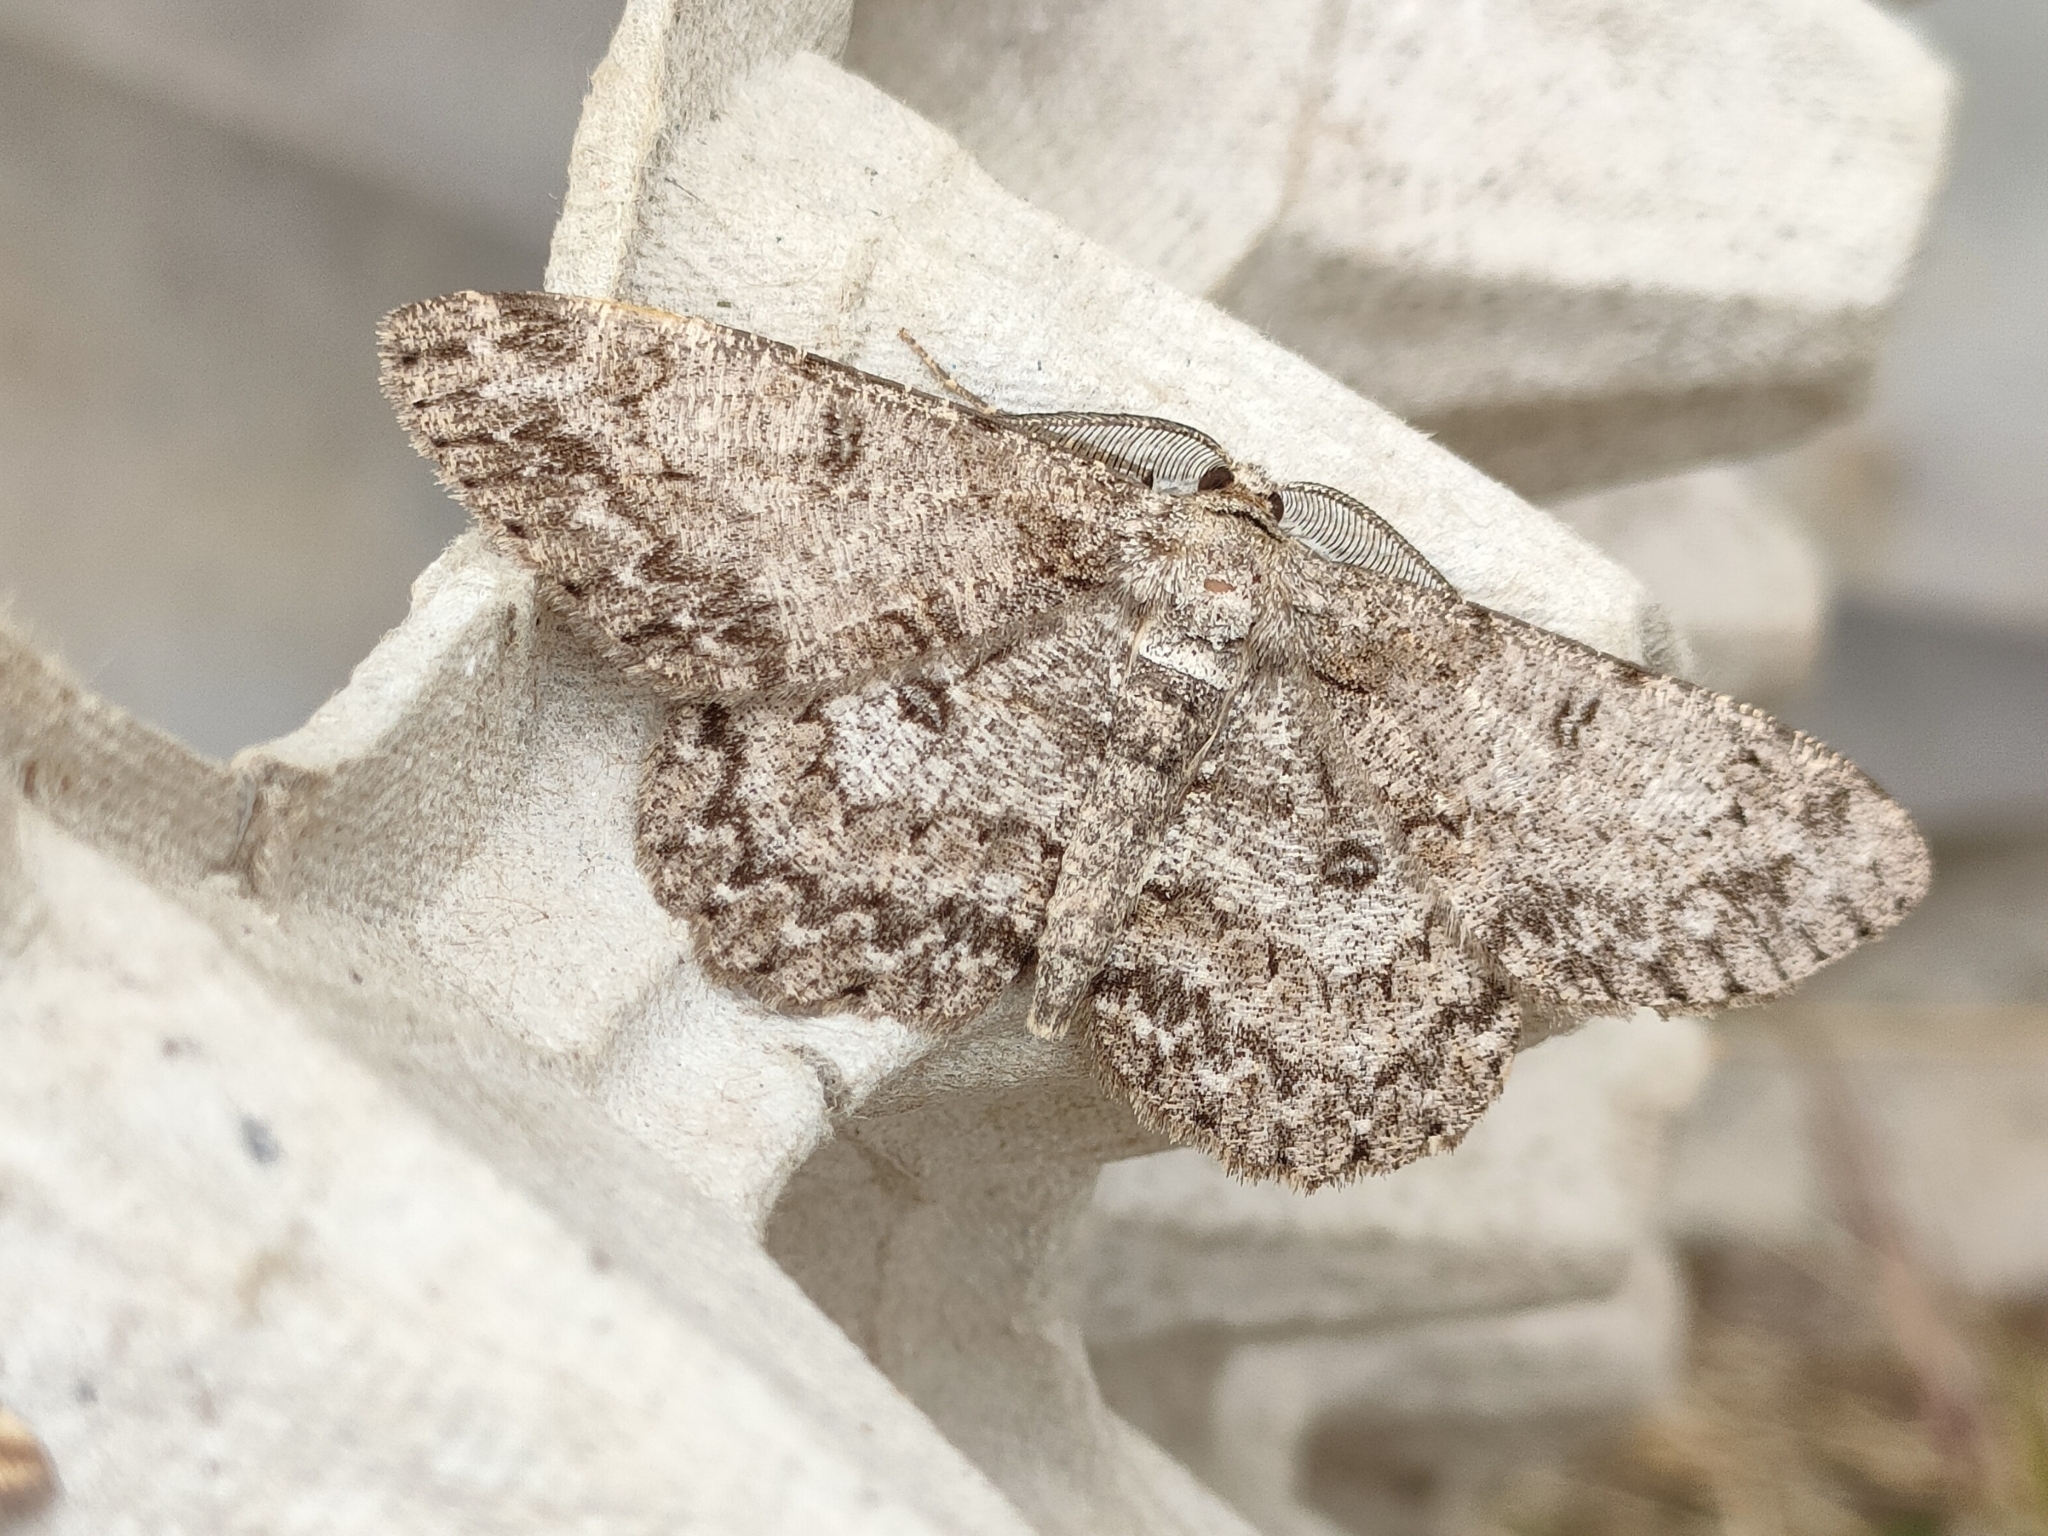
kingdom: Animalia
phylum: Arthropoda
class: Insecta
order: Lepidoptera
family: Geometridae
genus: Hypomecis
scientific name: Hypomecis punctinalis
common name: Pale oak beauty
